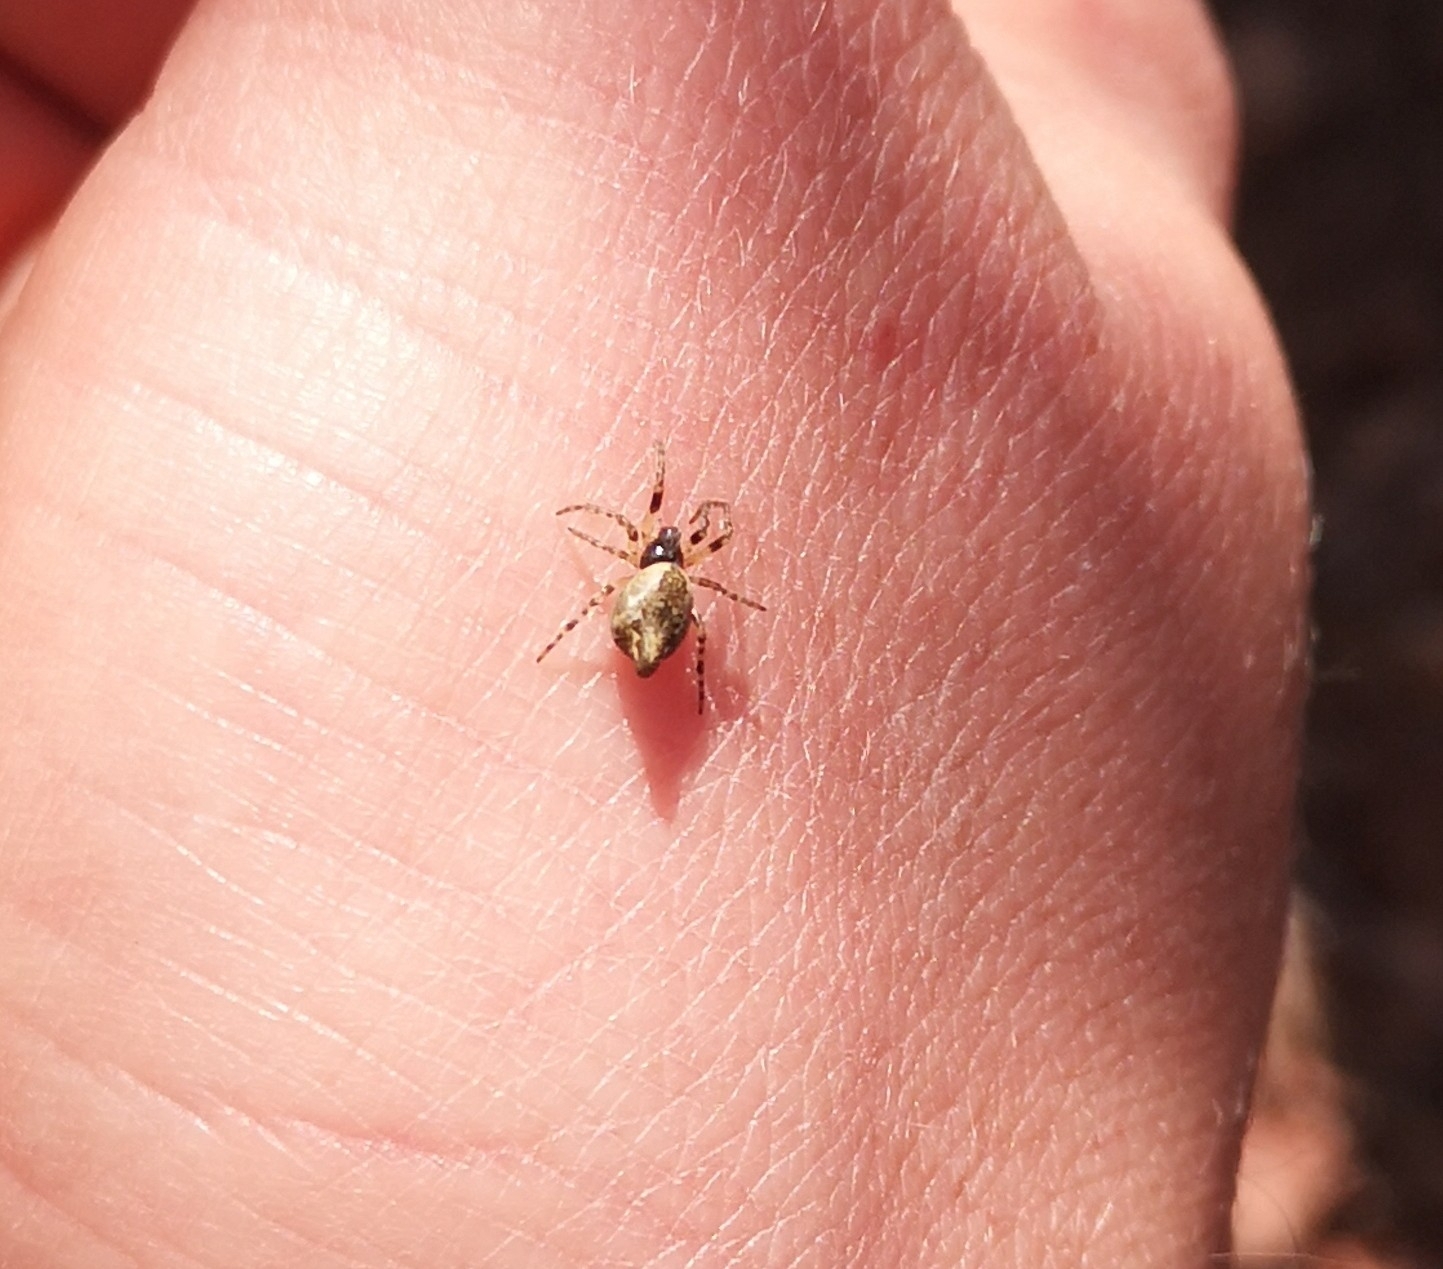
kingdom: Animalia
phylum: Arthropoda
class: Arachnida
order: Araneae
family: Araneidae
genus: Cyclosa
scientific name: Cyclosa conica
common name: Conical trashline orbweaver
